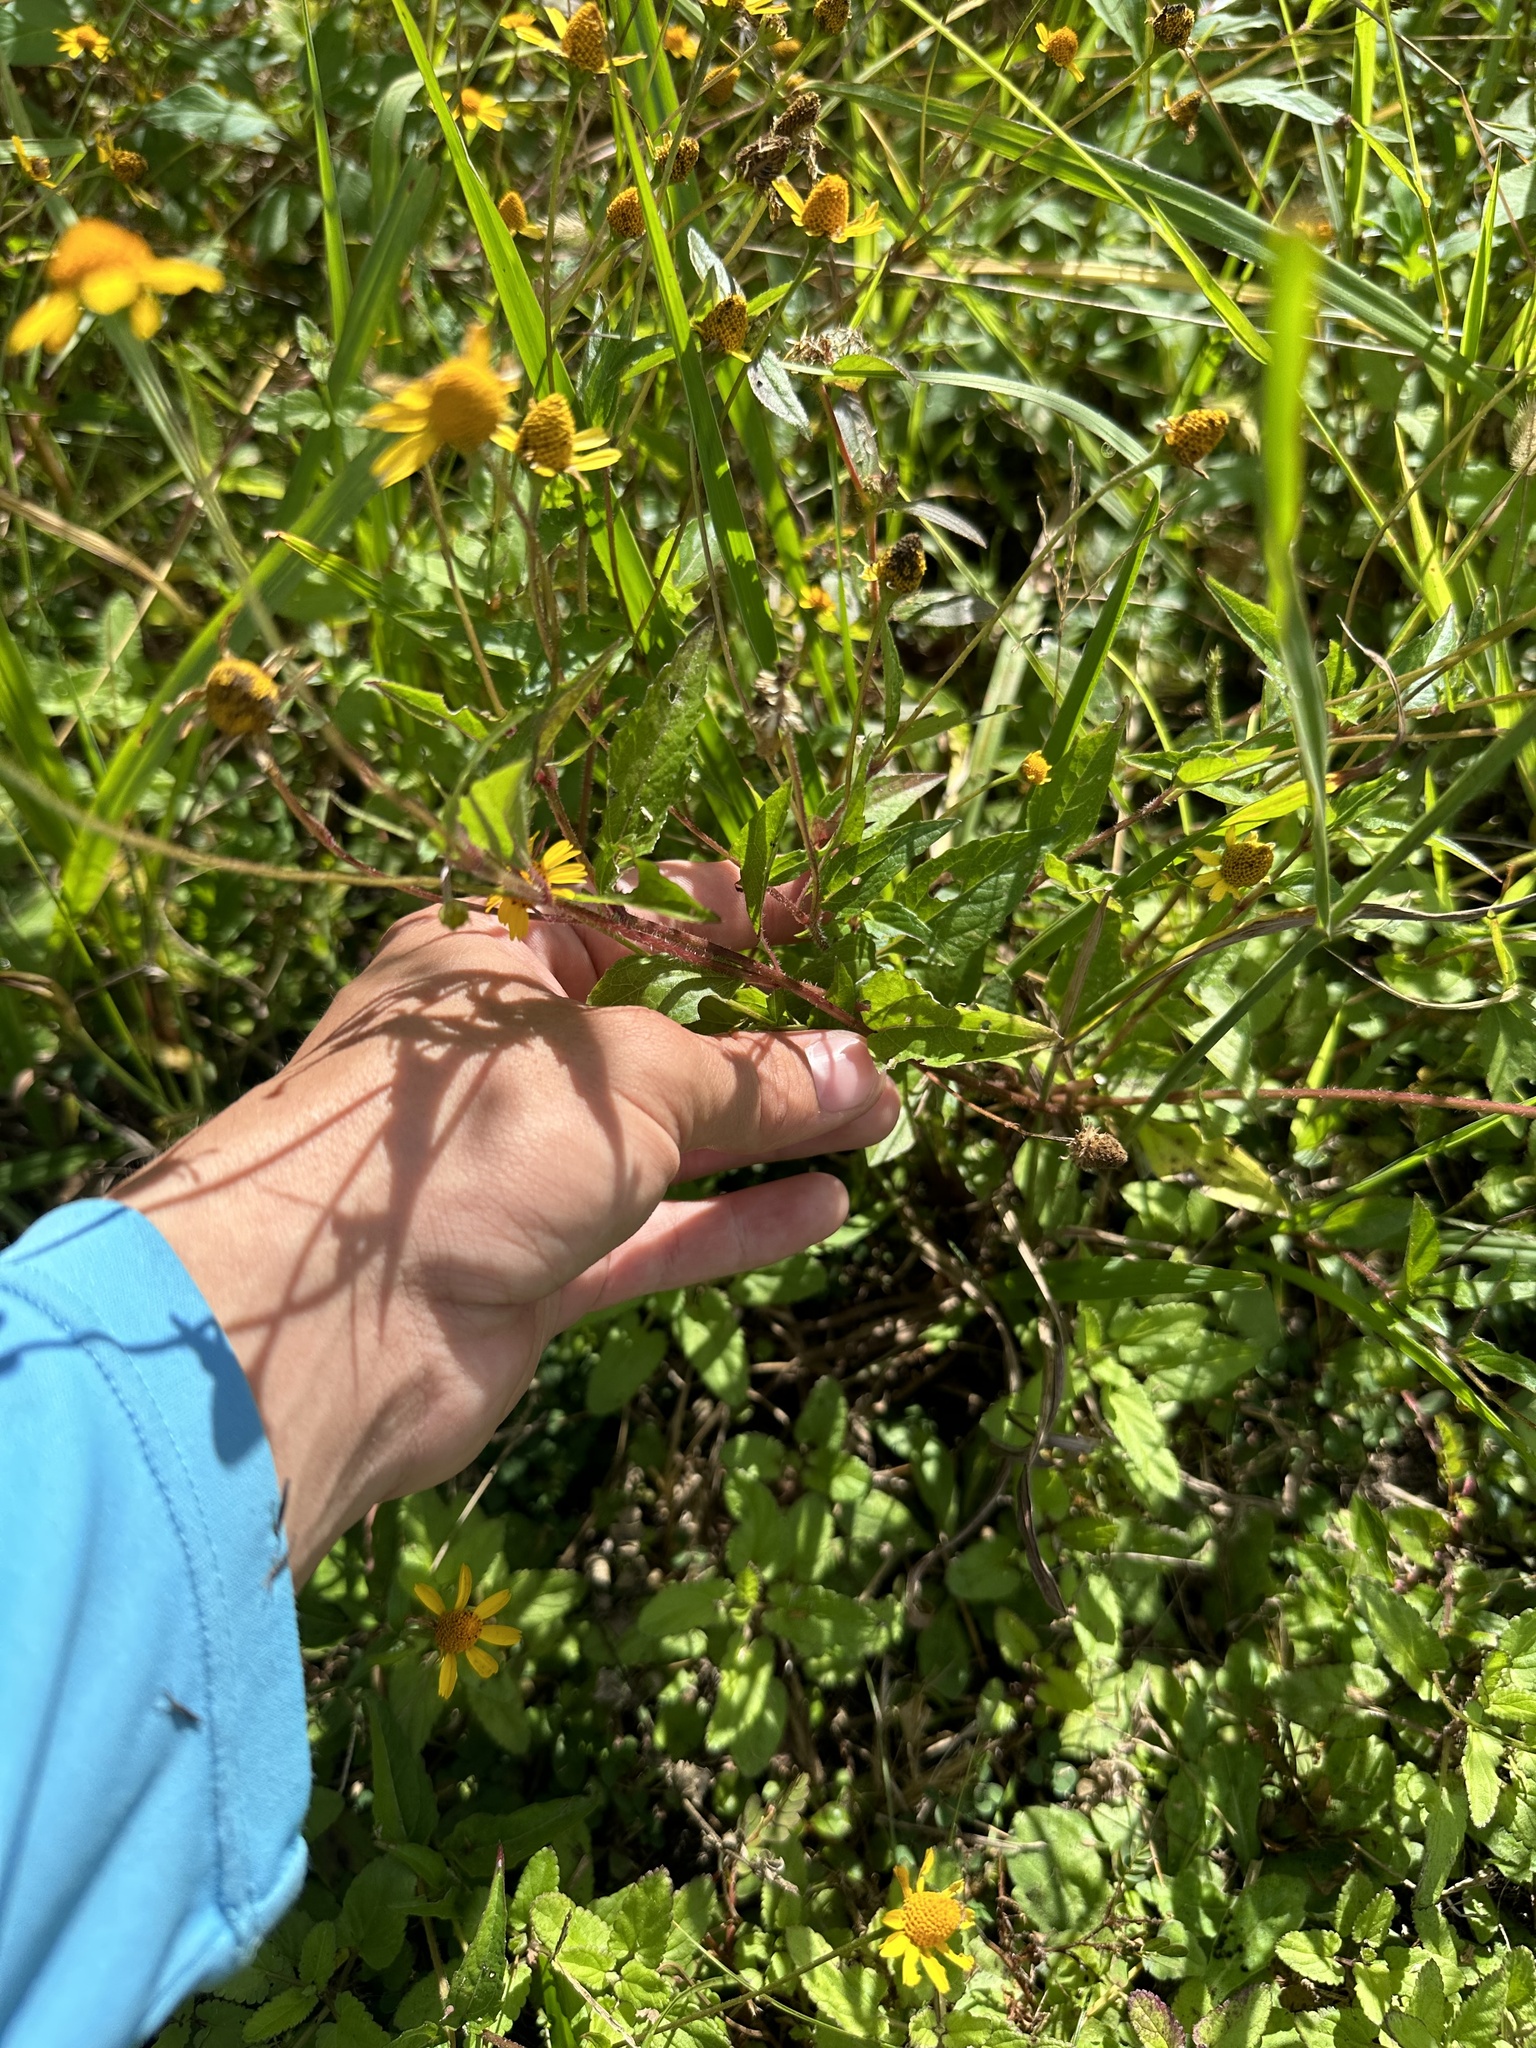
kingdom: Plantae
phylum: Tracheophyta
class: Magnoliopsida
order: Asterales
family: Asteraceae
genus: Acmella
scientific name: Acmella repens
